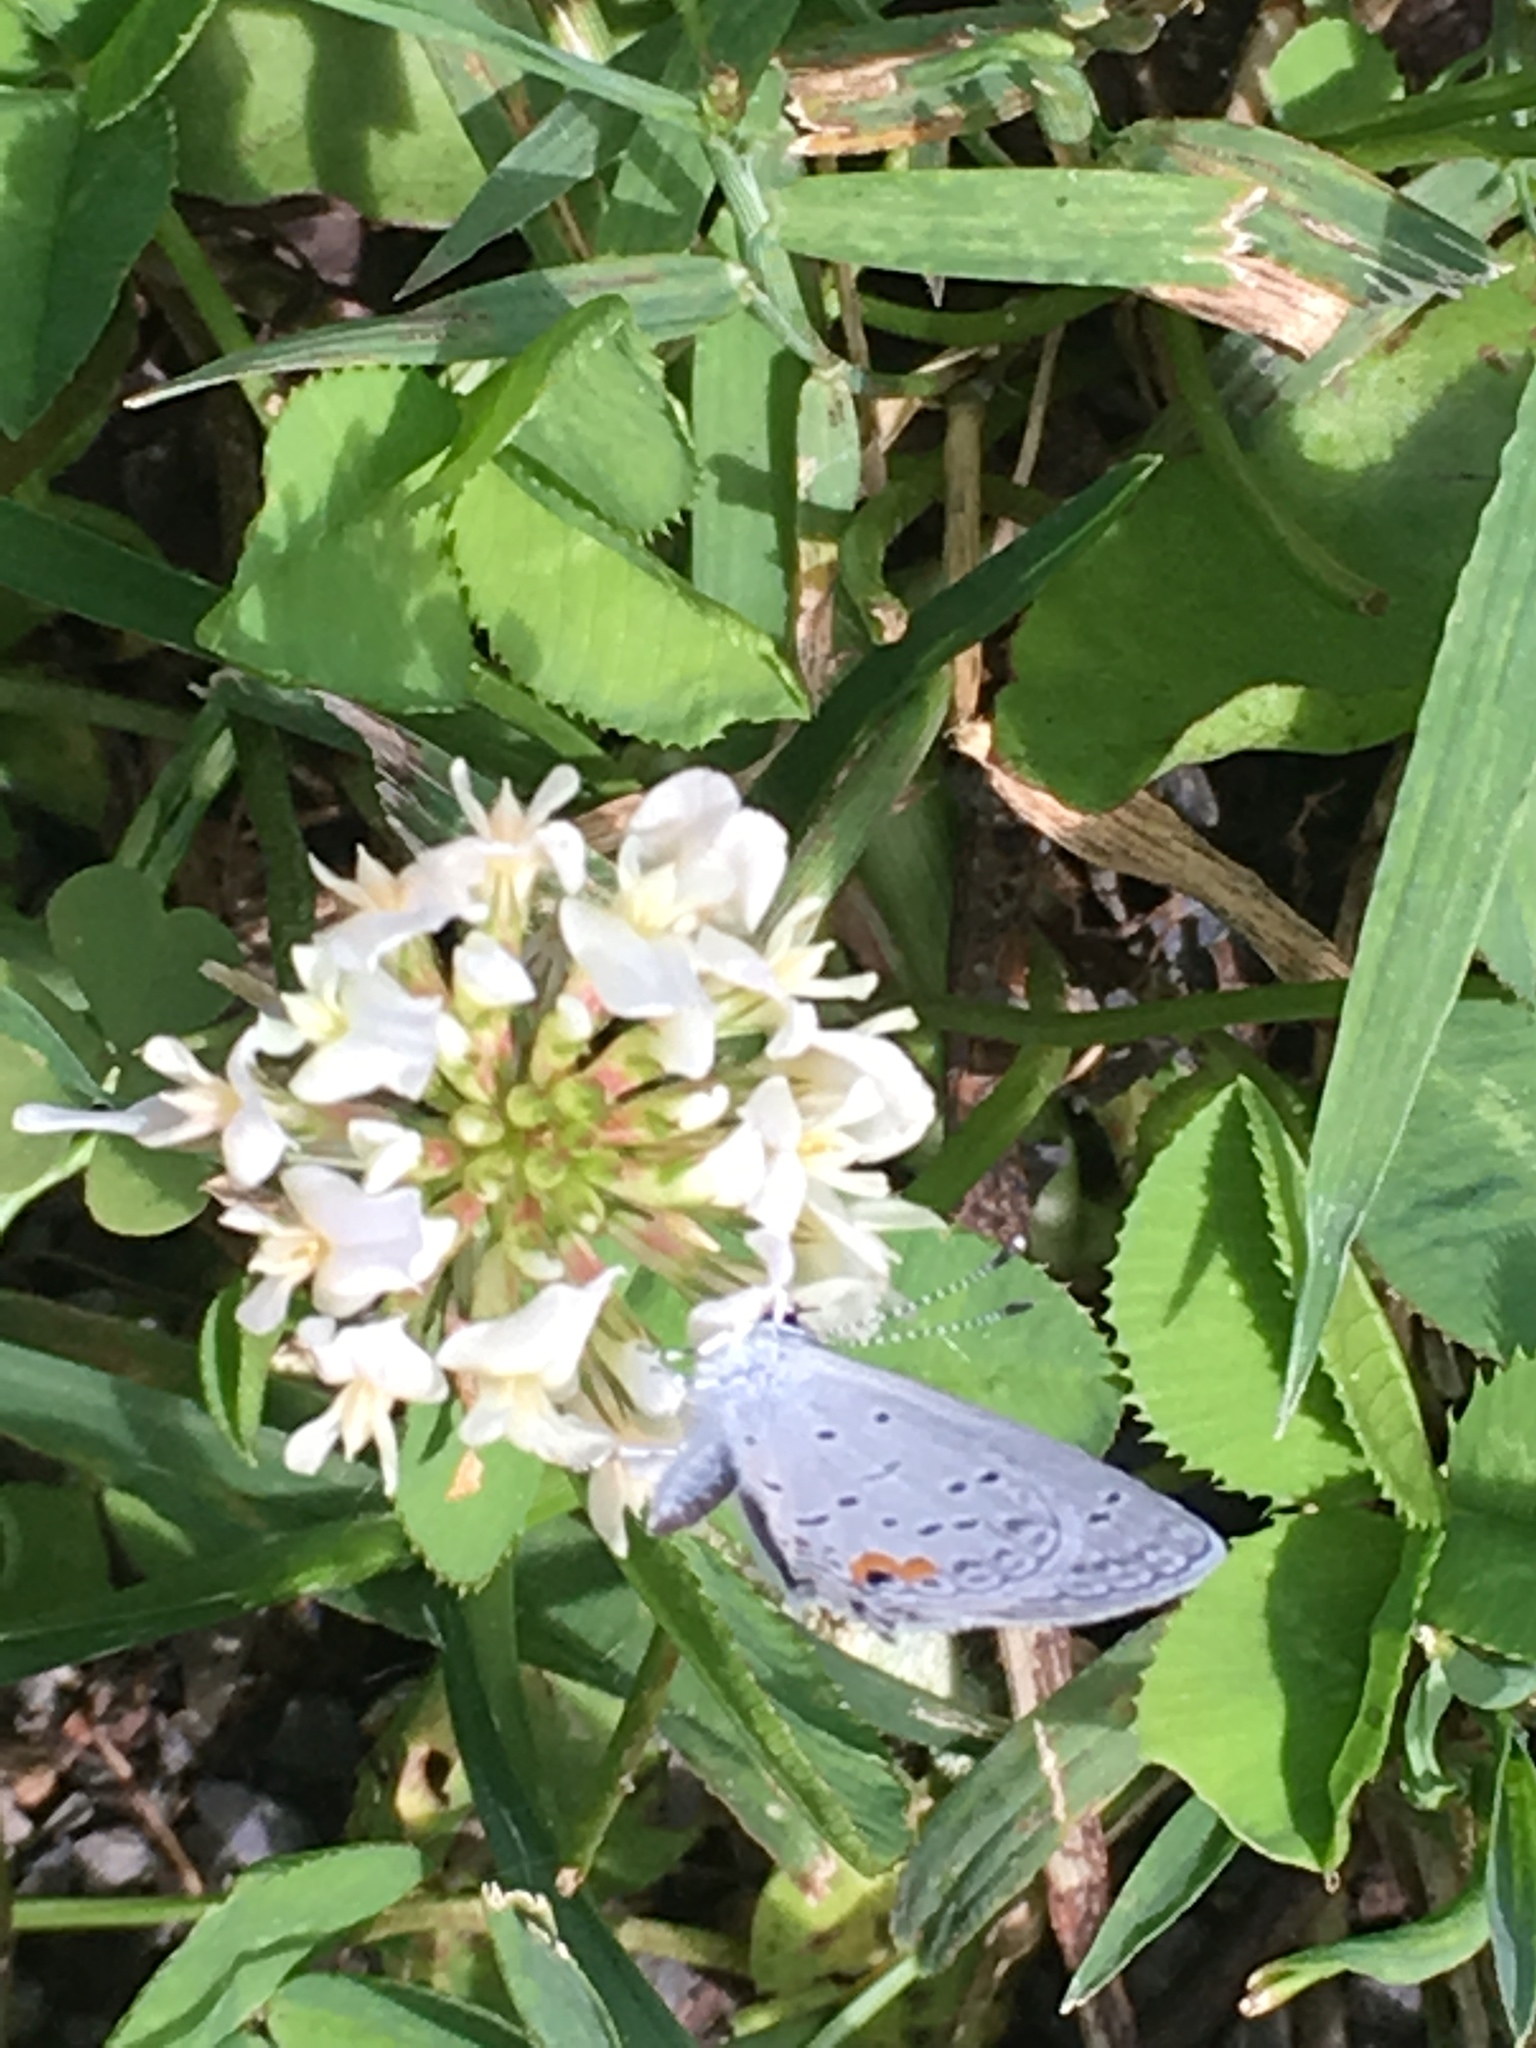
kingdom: Animalia
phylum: Arthropoda
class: Insecta
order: Lepidoptera
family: Lycaenidae
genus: Elkalyce
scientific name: Elkalyce comyntas
